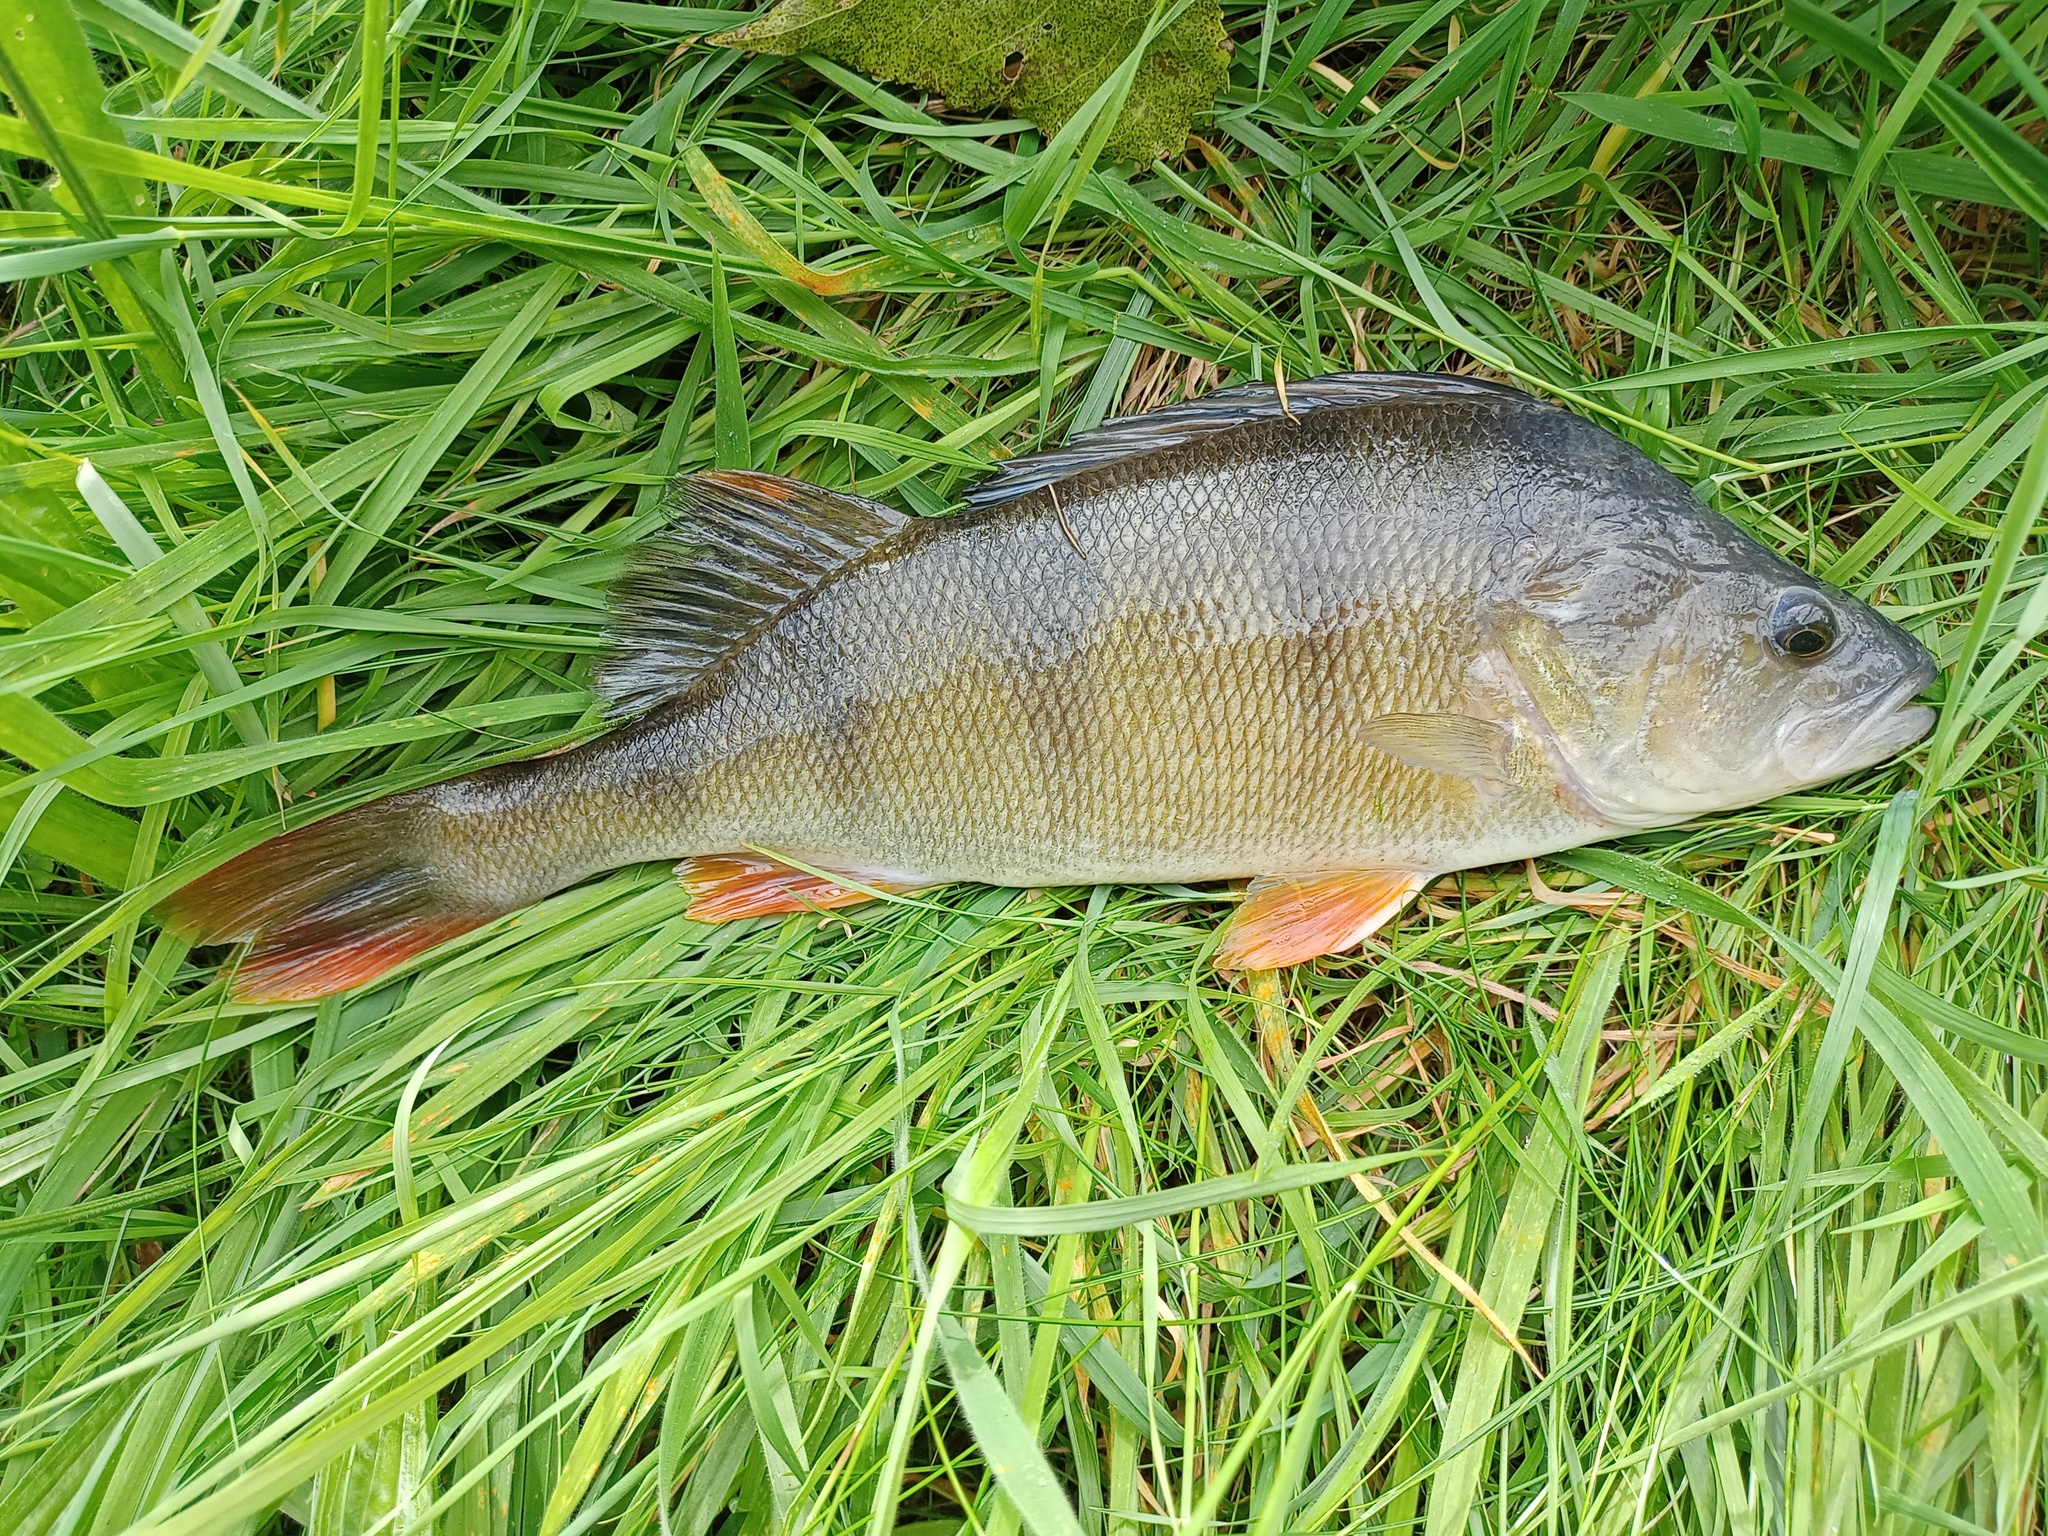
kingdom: Animalia
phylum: Chordata
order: Perciformes
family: Percidae
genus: Perca
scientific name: Perca fluviatilis
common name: Perch
